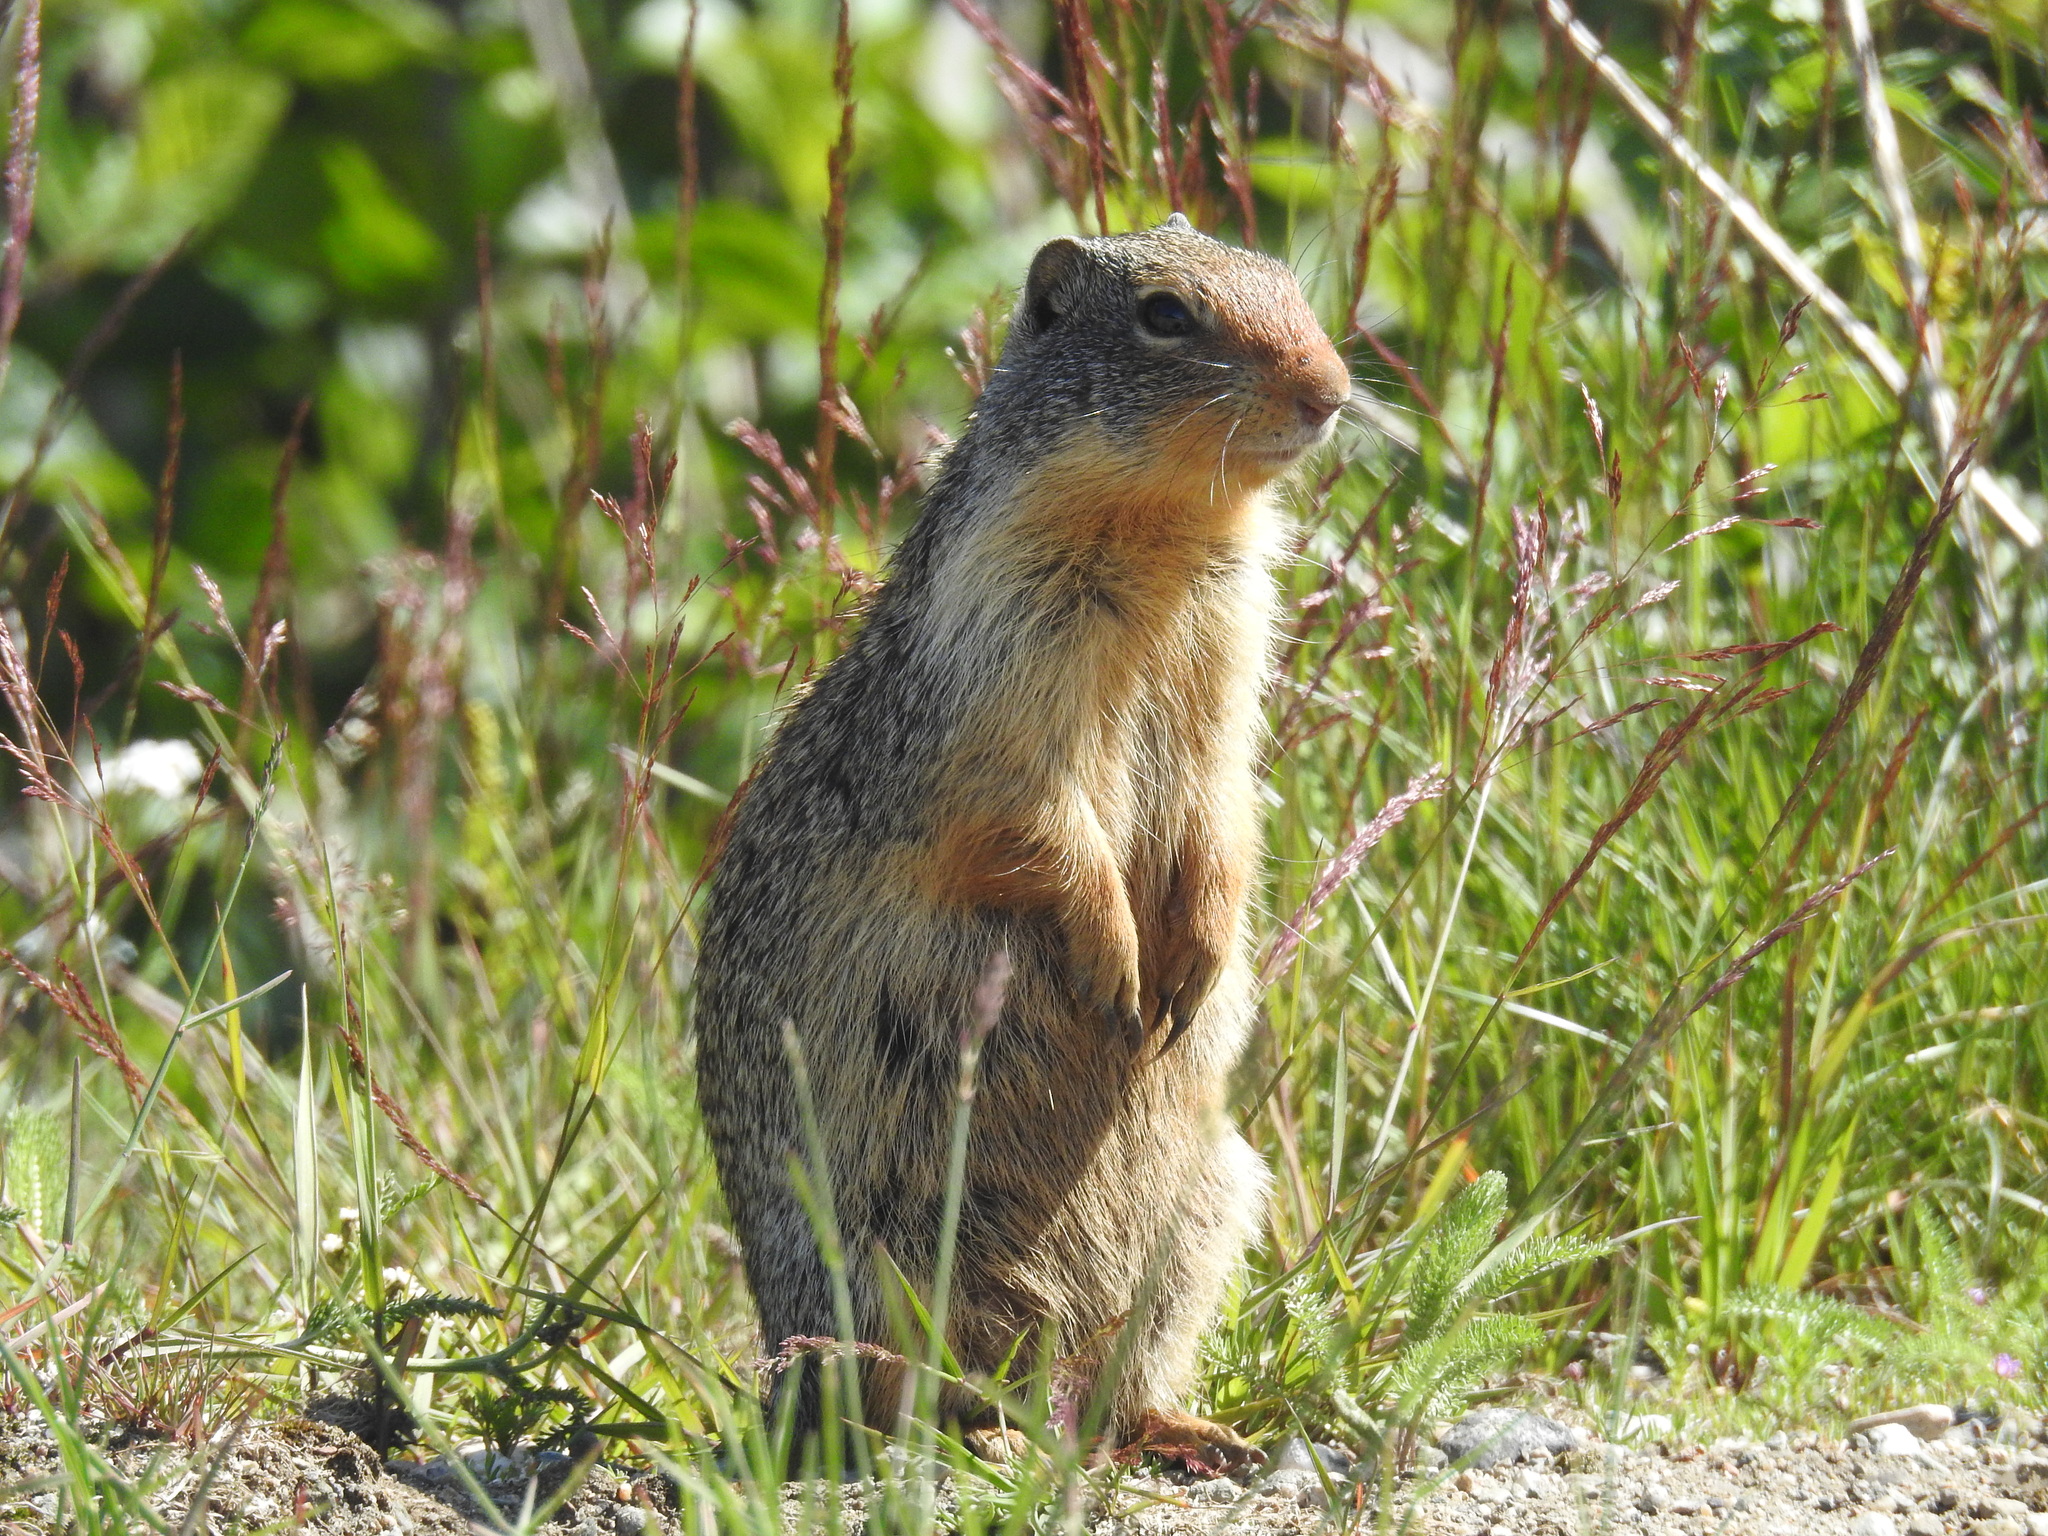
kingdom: Animalia
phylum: Chordata
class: Mammalia
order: Rodentia
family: Sciuridae
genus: Urocitellus
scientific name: Urocitellus columbianus
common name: Columbian ground squirrel
